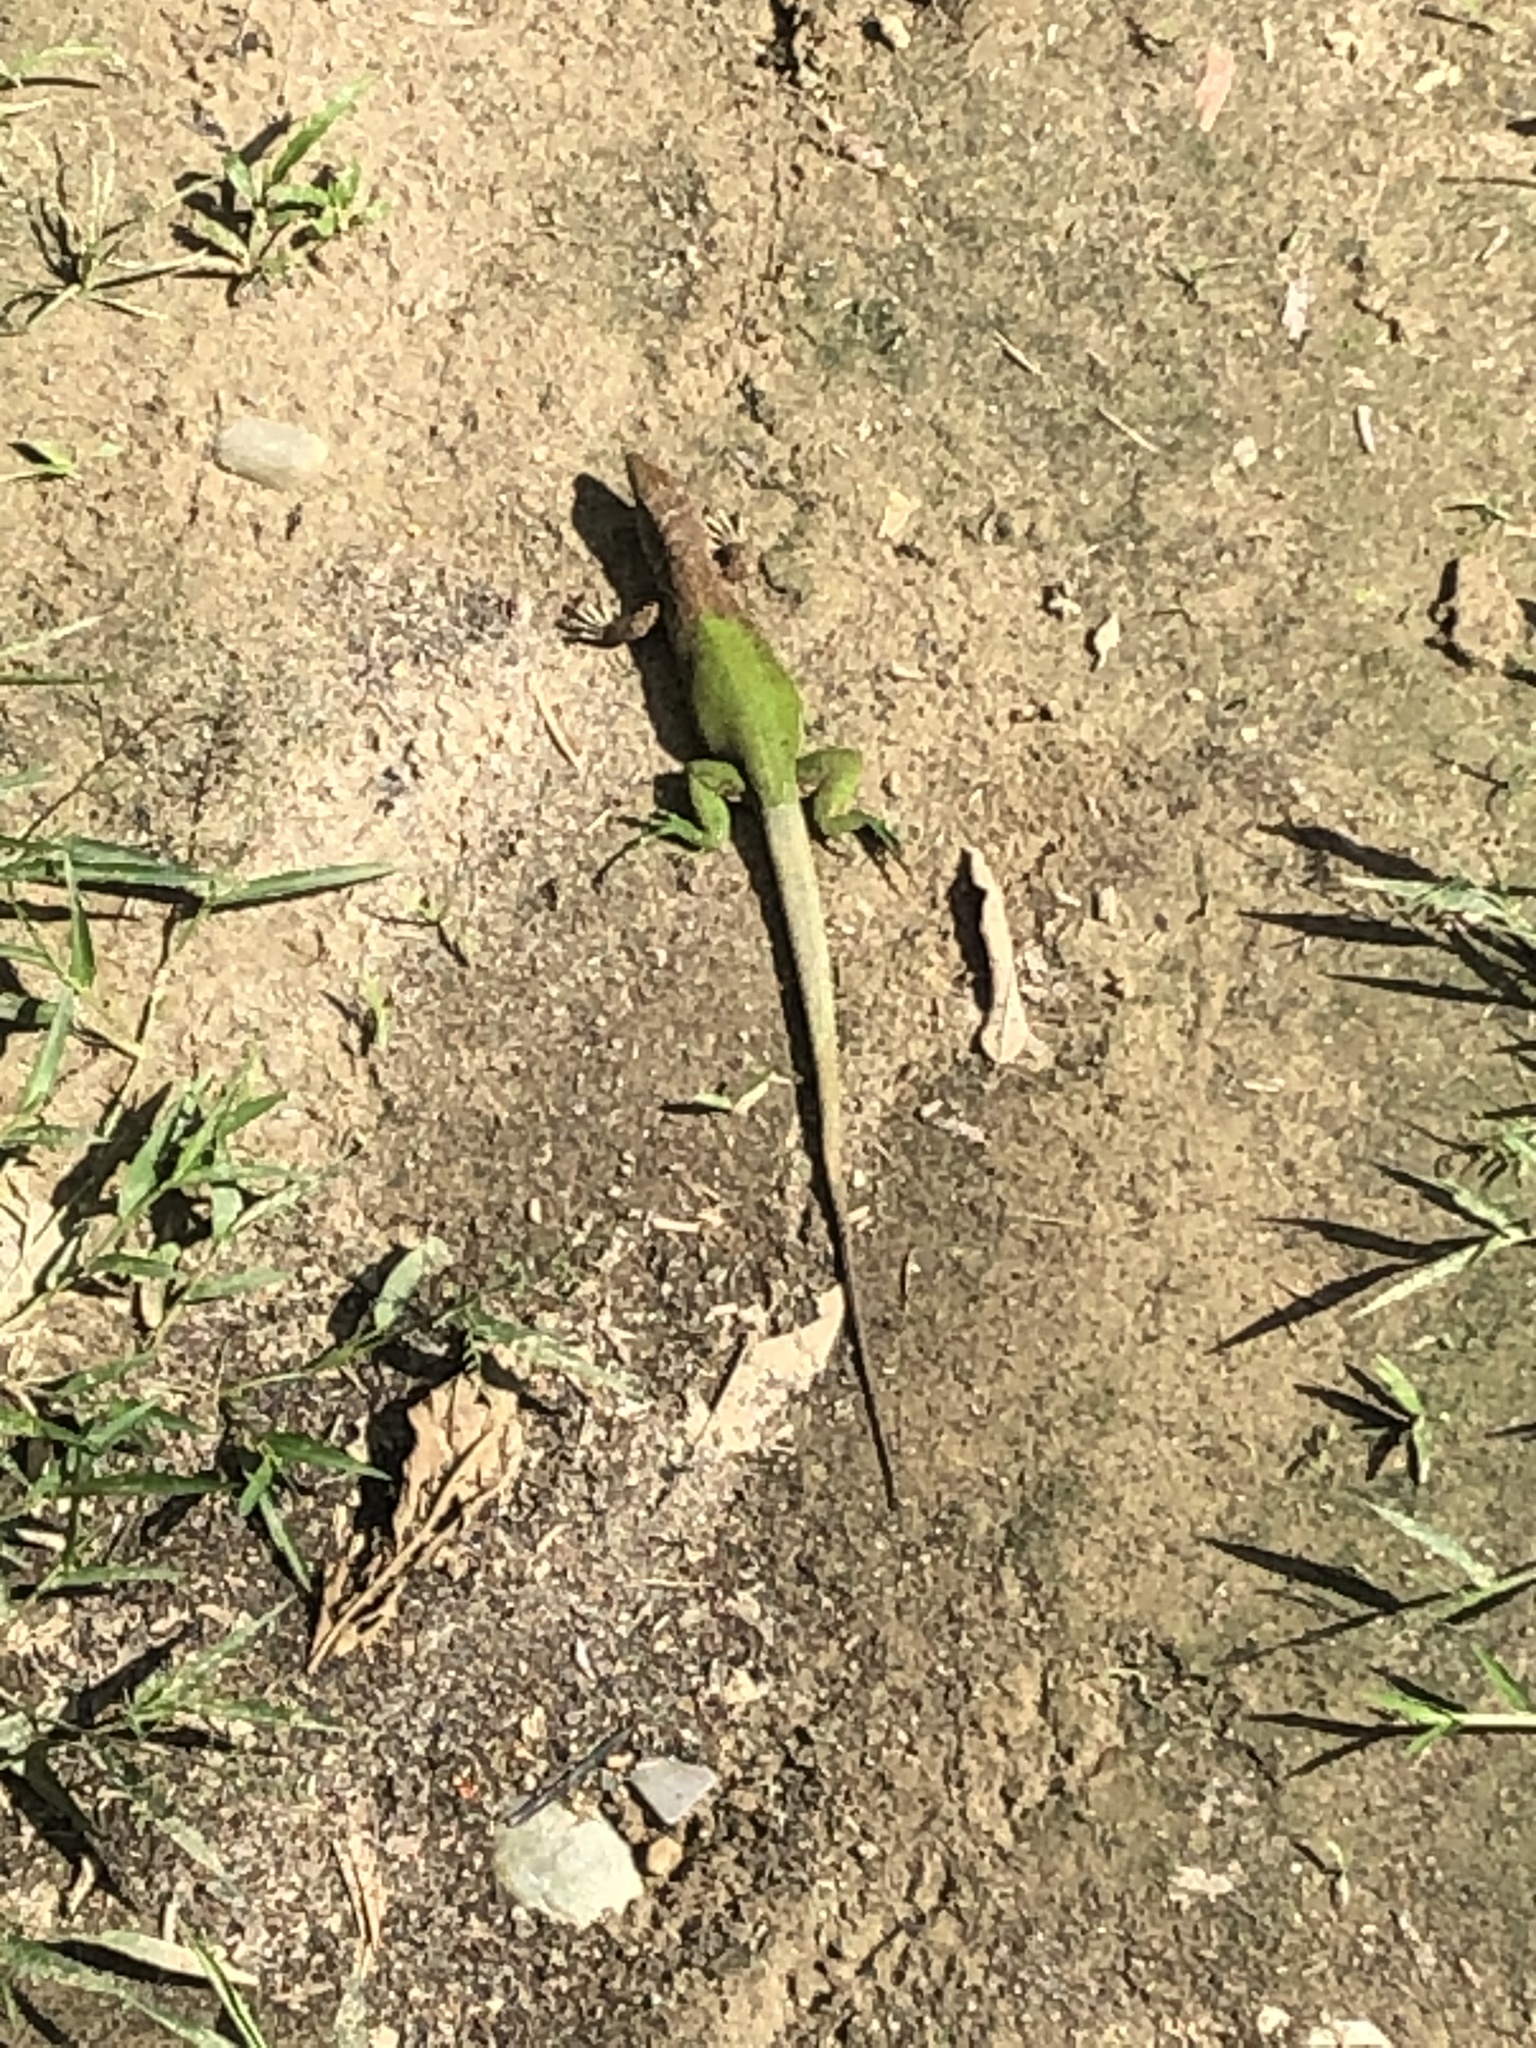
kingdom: Animalia
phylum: Chordata
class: Squamata
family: Teiidae
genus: Ameiva
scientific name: Ameiva ameiva
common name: Giant ameiva
